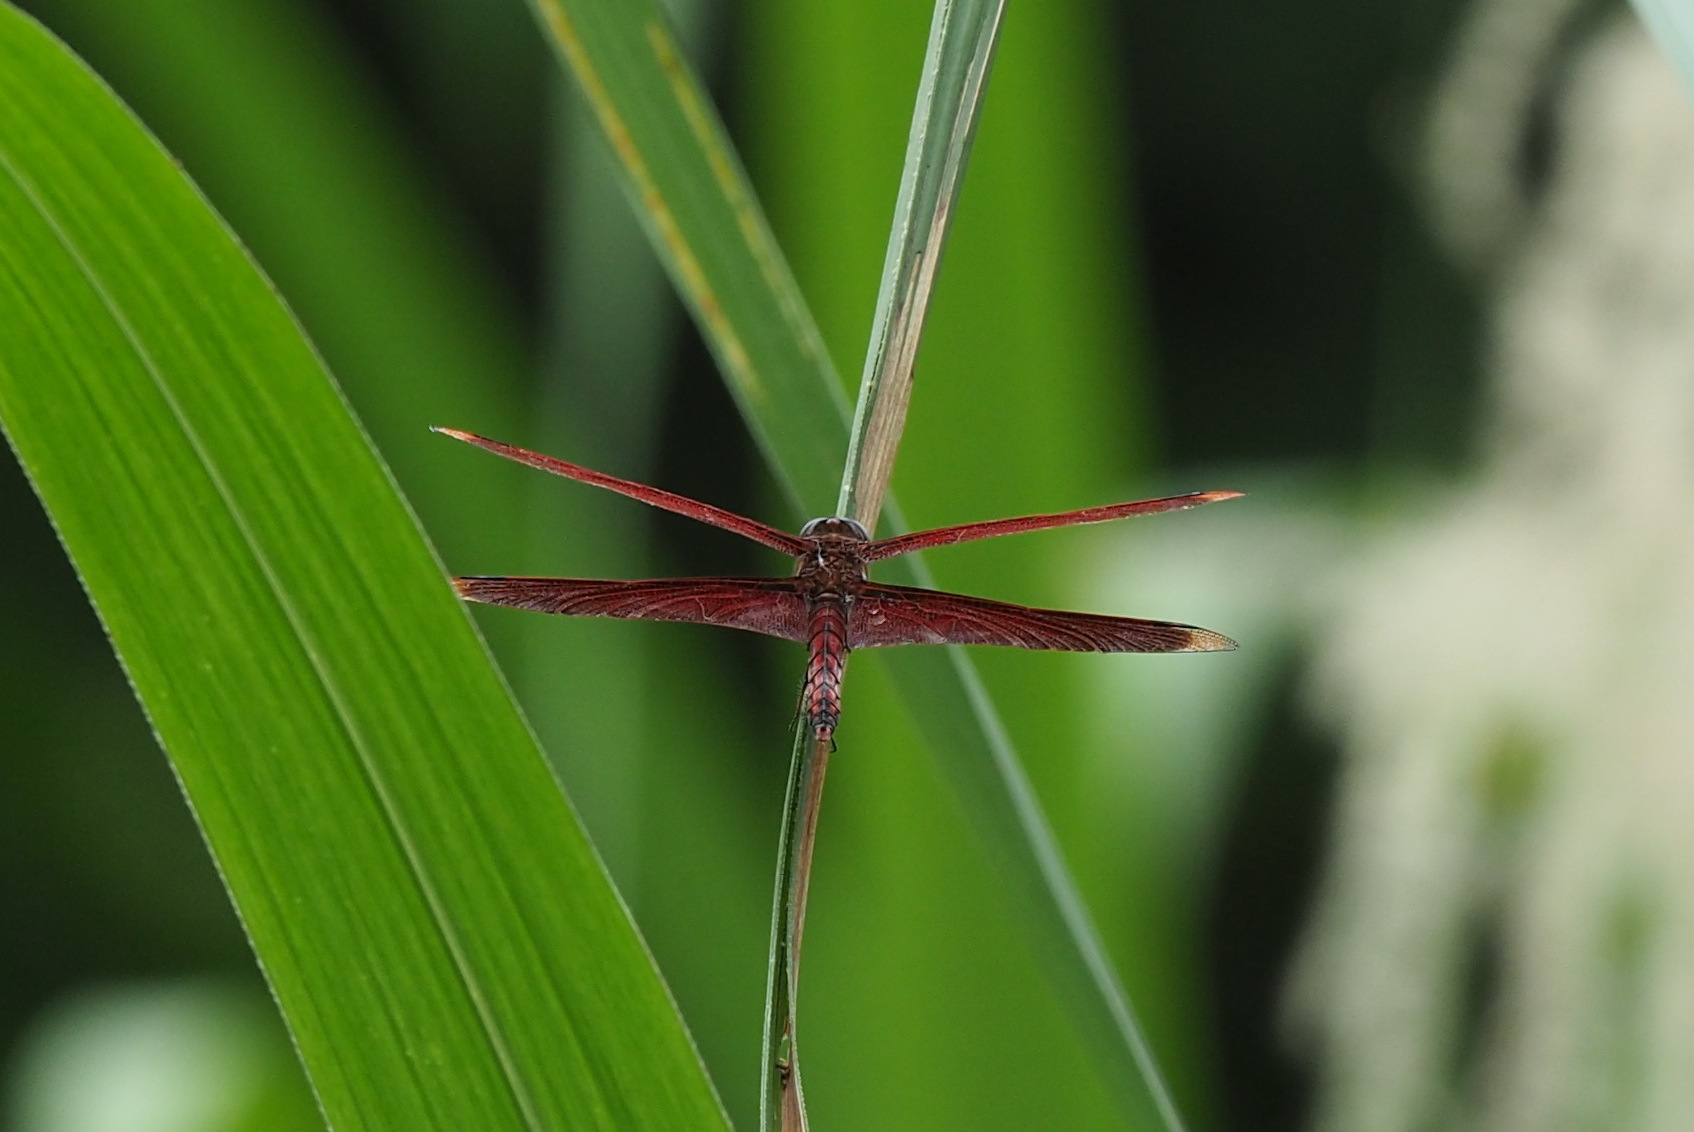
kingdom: Animalia
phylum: Arthropoda
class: Insecta
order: Odonata
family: Libellulidae
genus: Neurothemis
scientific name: Neurothemis taiwanensis
